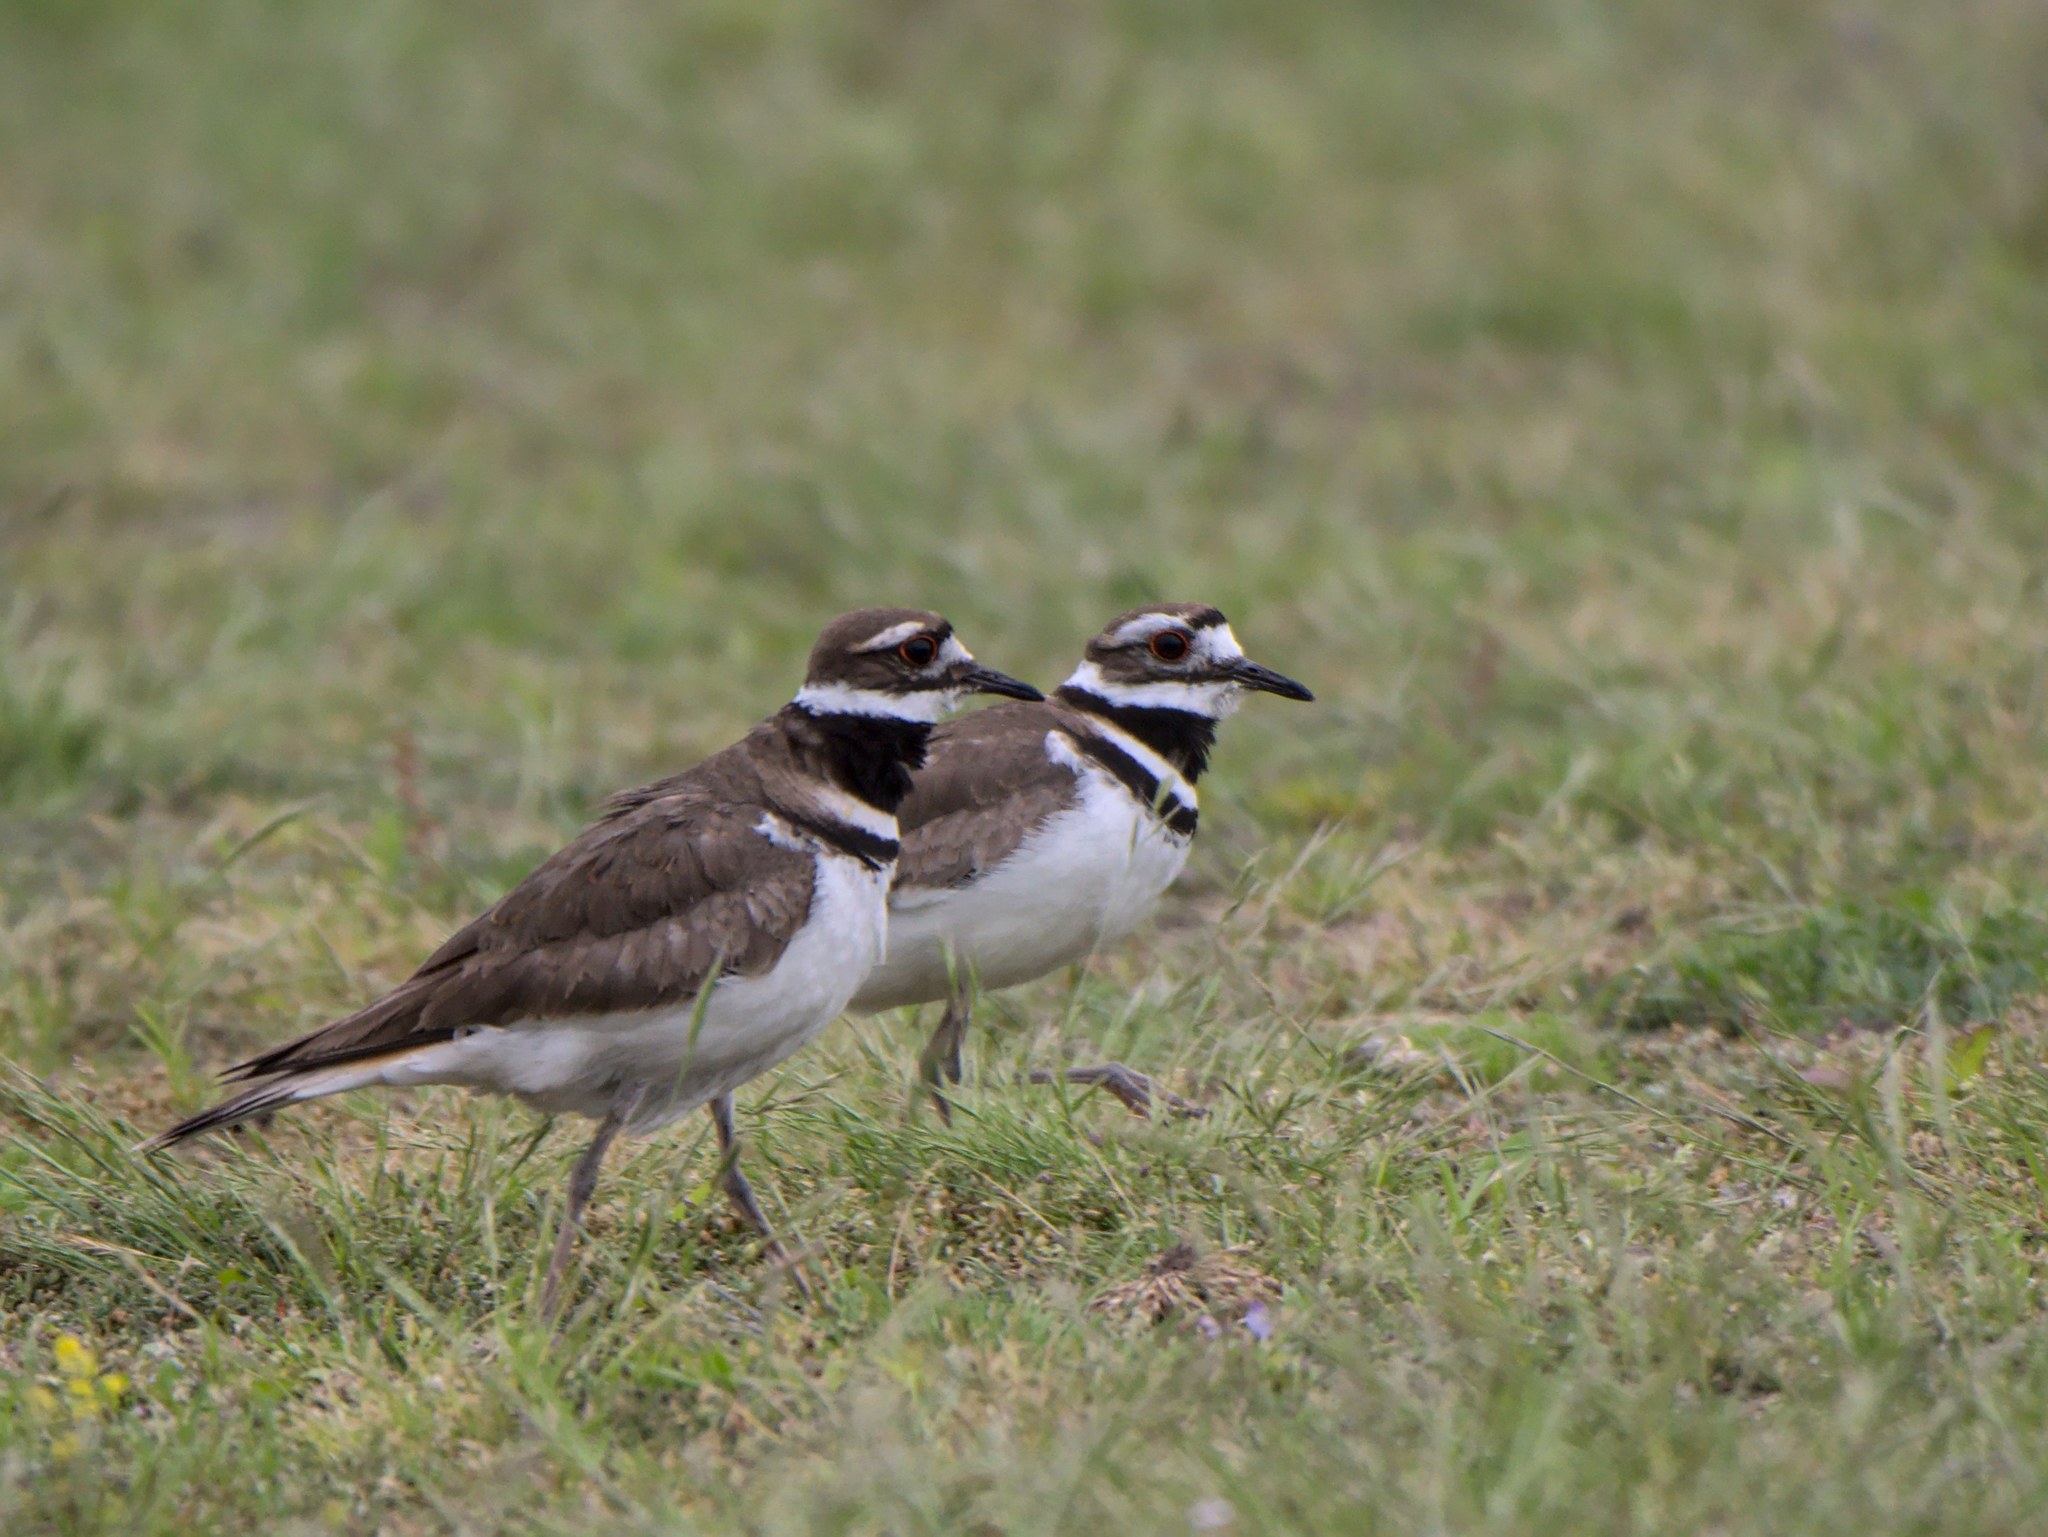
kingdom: Animalia
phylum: Chordata
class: Aves
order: Charadriiformes
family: Charadriidae
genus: Charadrius
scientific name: Charadrius vociferus
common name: Killdeer
